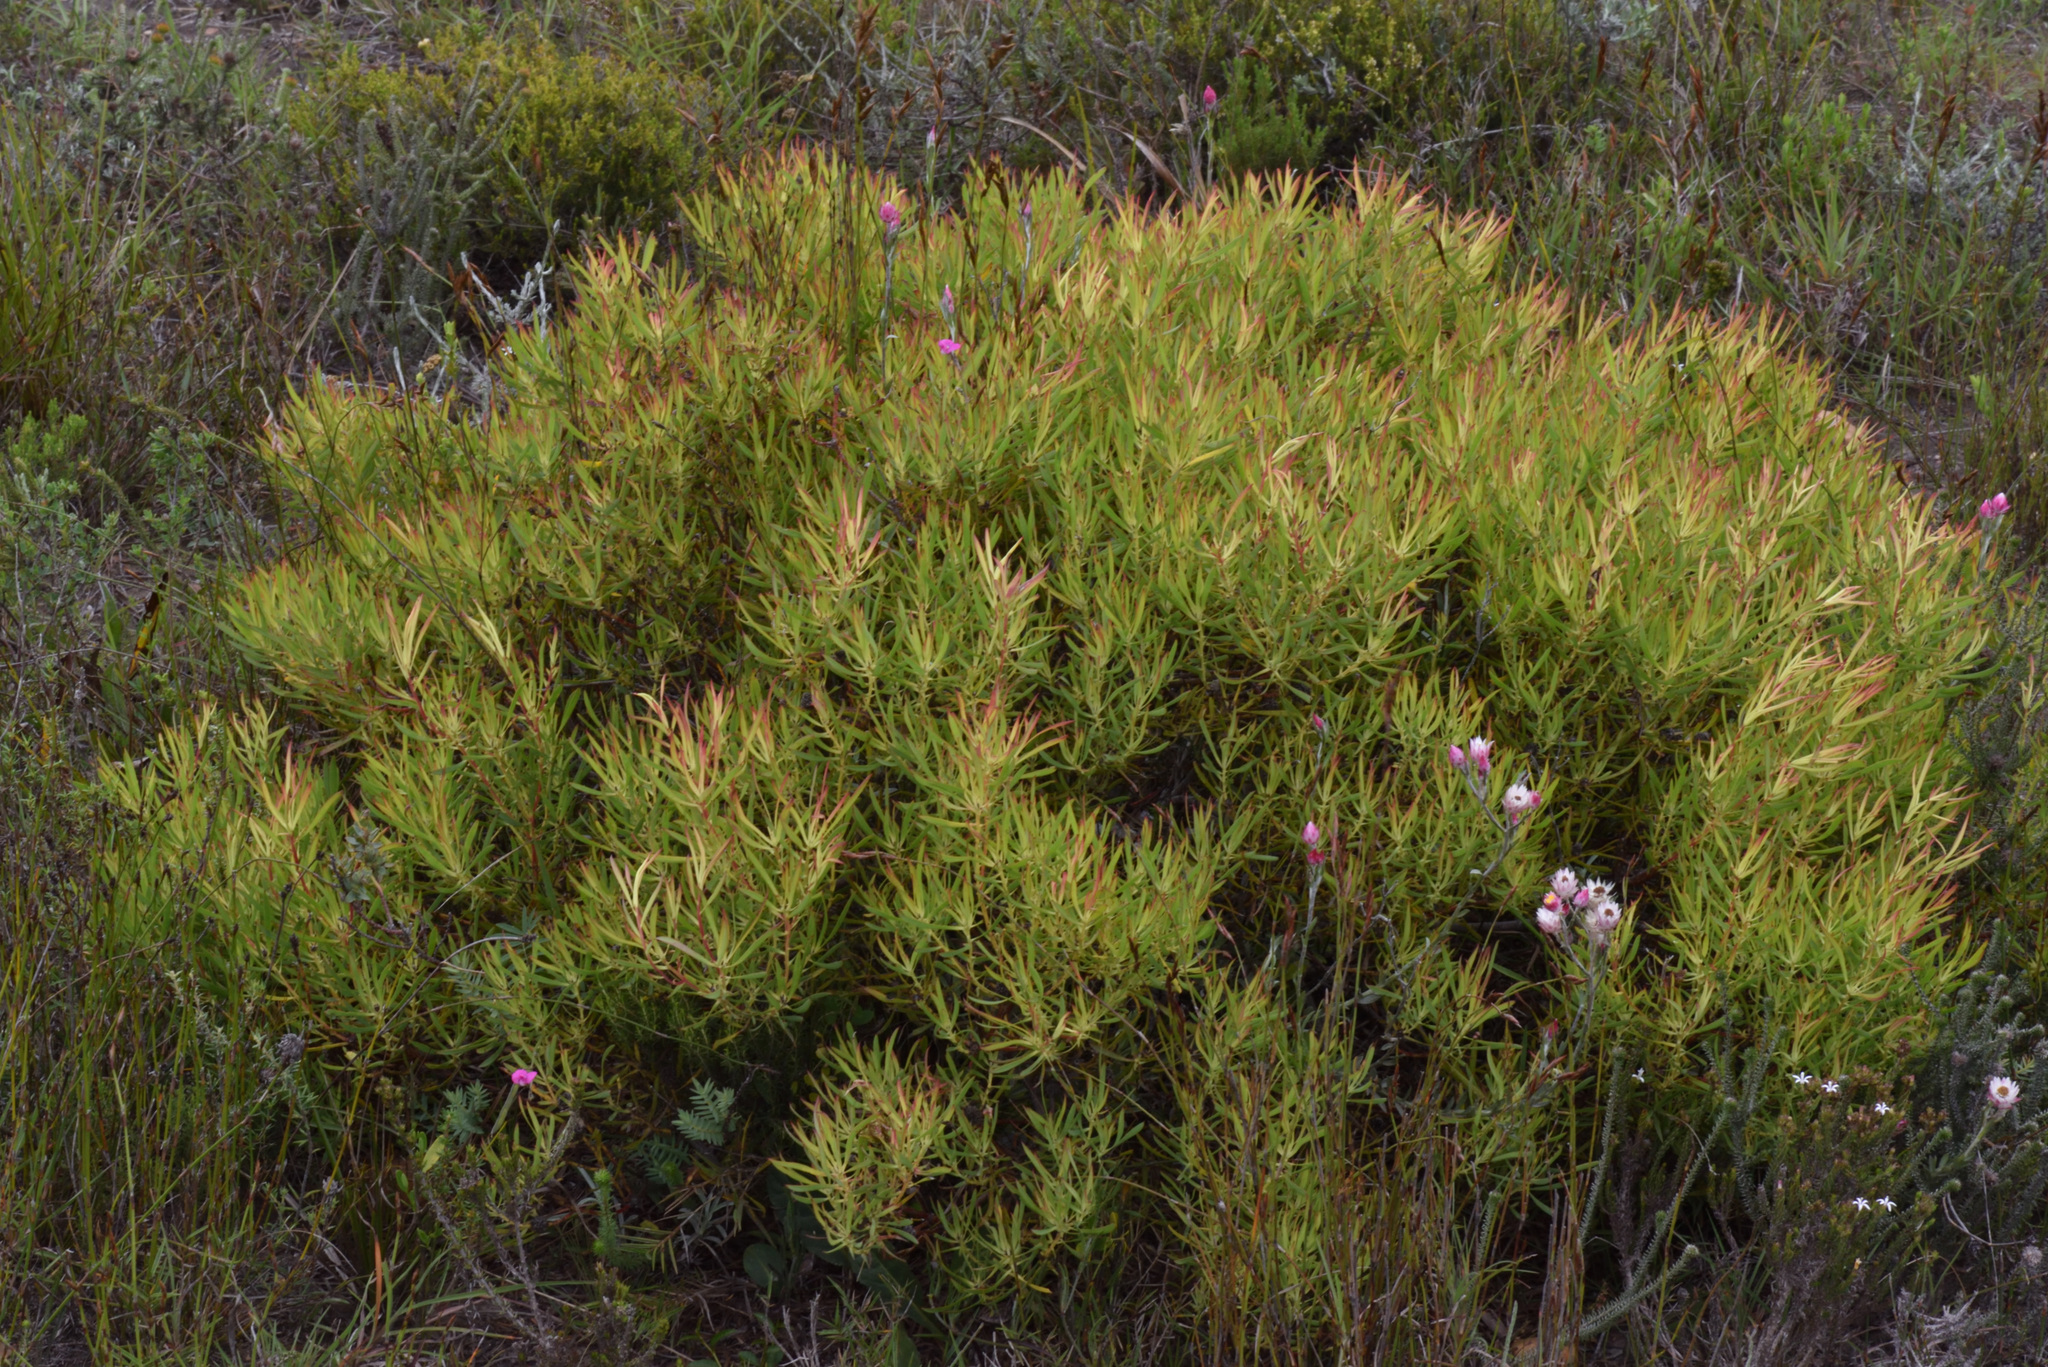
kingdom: Plantae
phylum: Tracheophyta
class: Magnoliopsida
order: Proteales
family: Proteaceae
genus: Leucadendron
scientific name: Leucadendron salignum
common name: Common sunshine conebush
